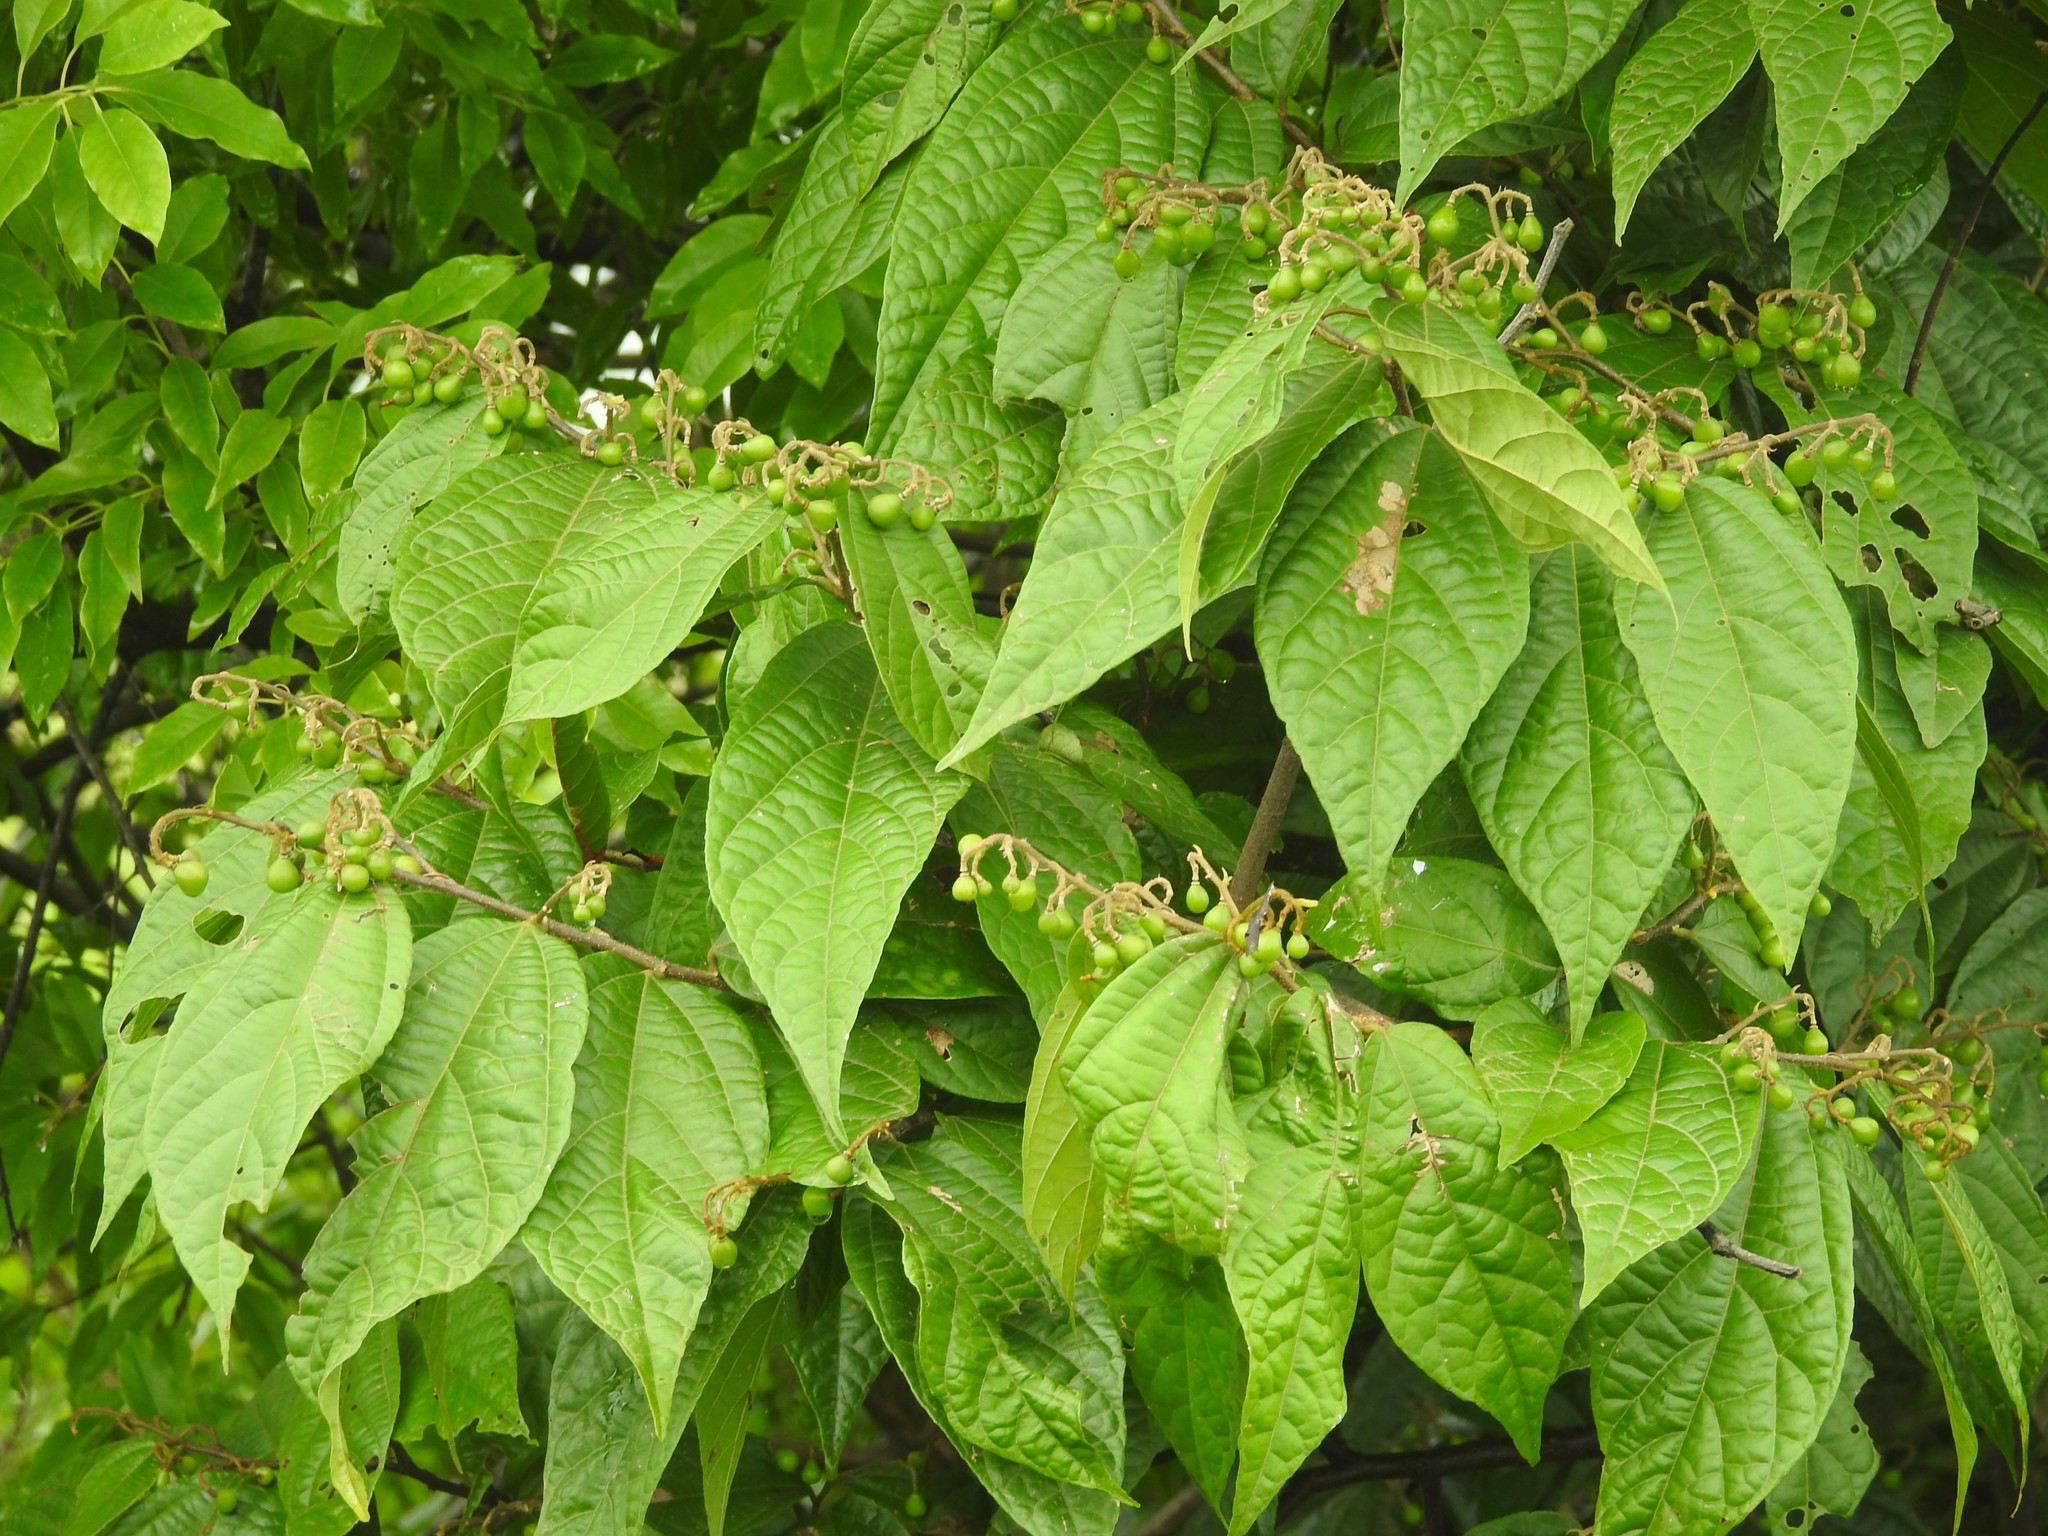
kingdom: Plantae
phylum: Tracheophyta
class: Magnoliopsida
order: Malvales
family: Malvaceae
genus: Microcos
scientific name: Microcos paniculata
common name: Microcos
